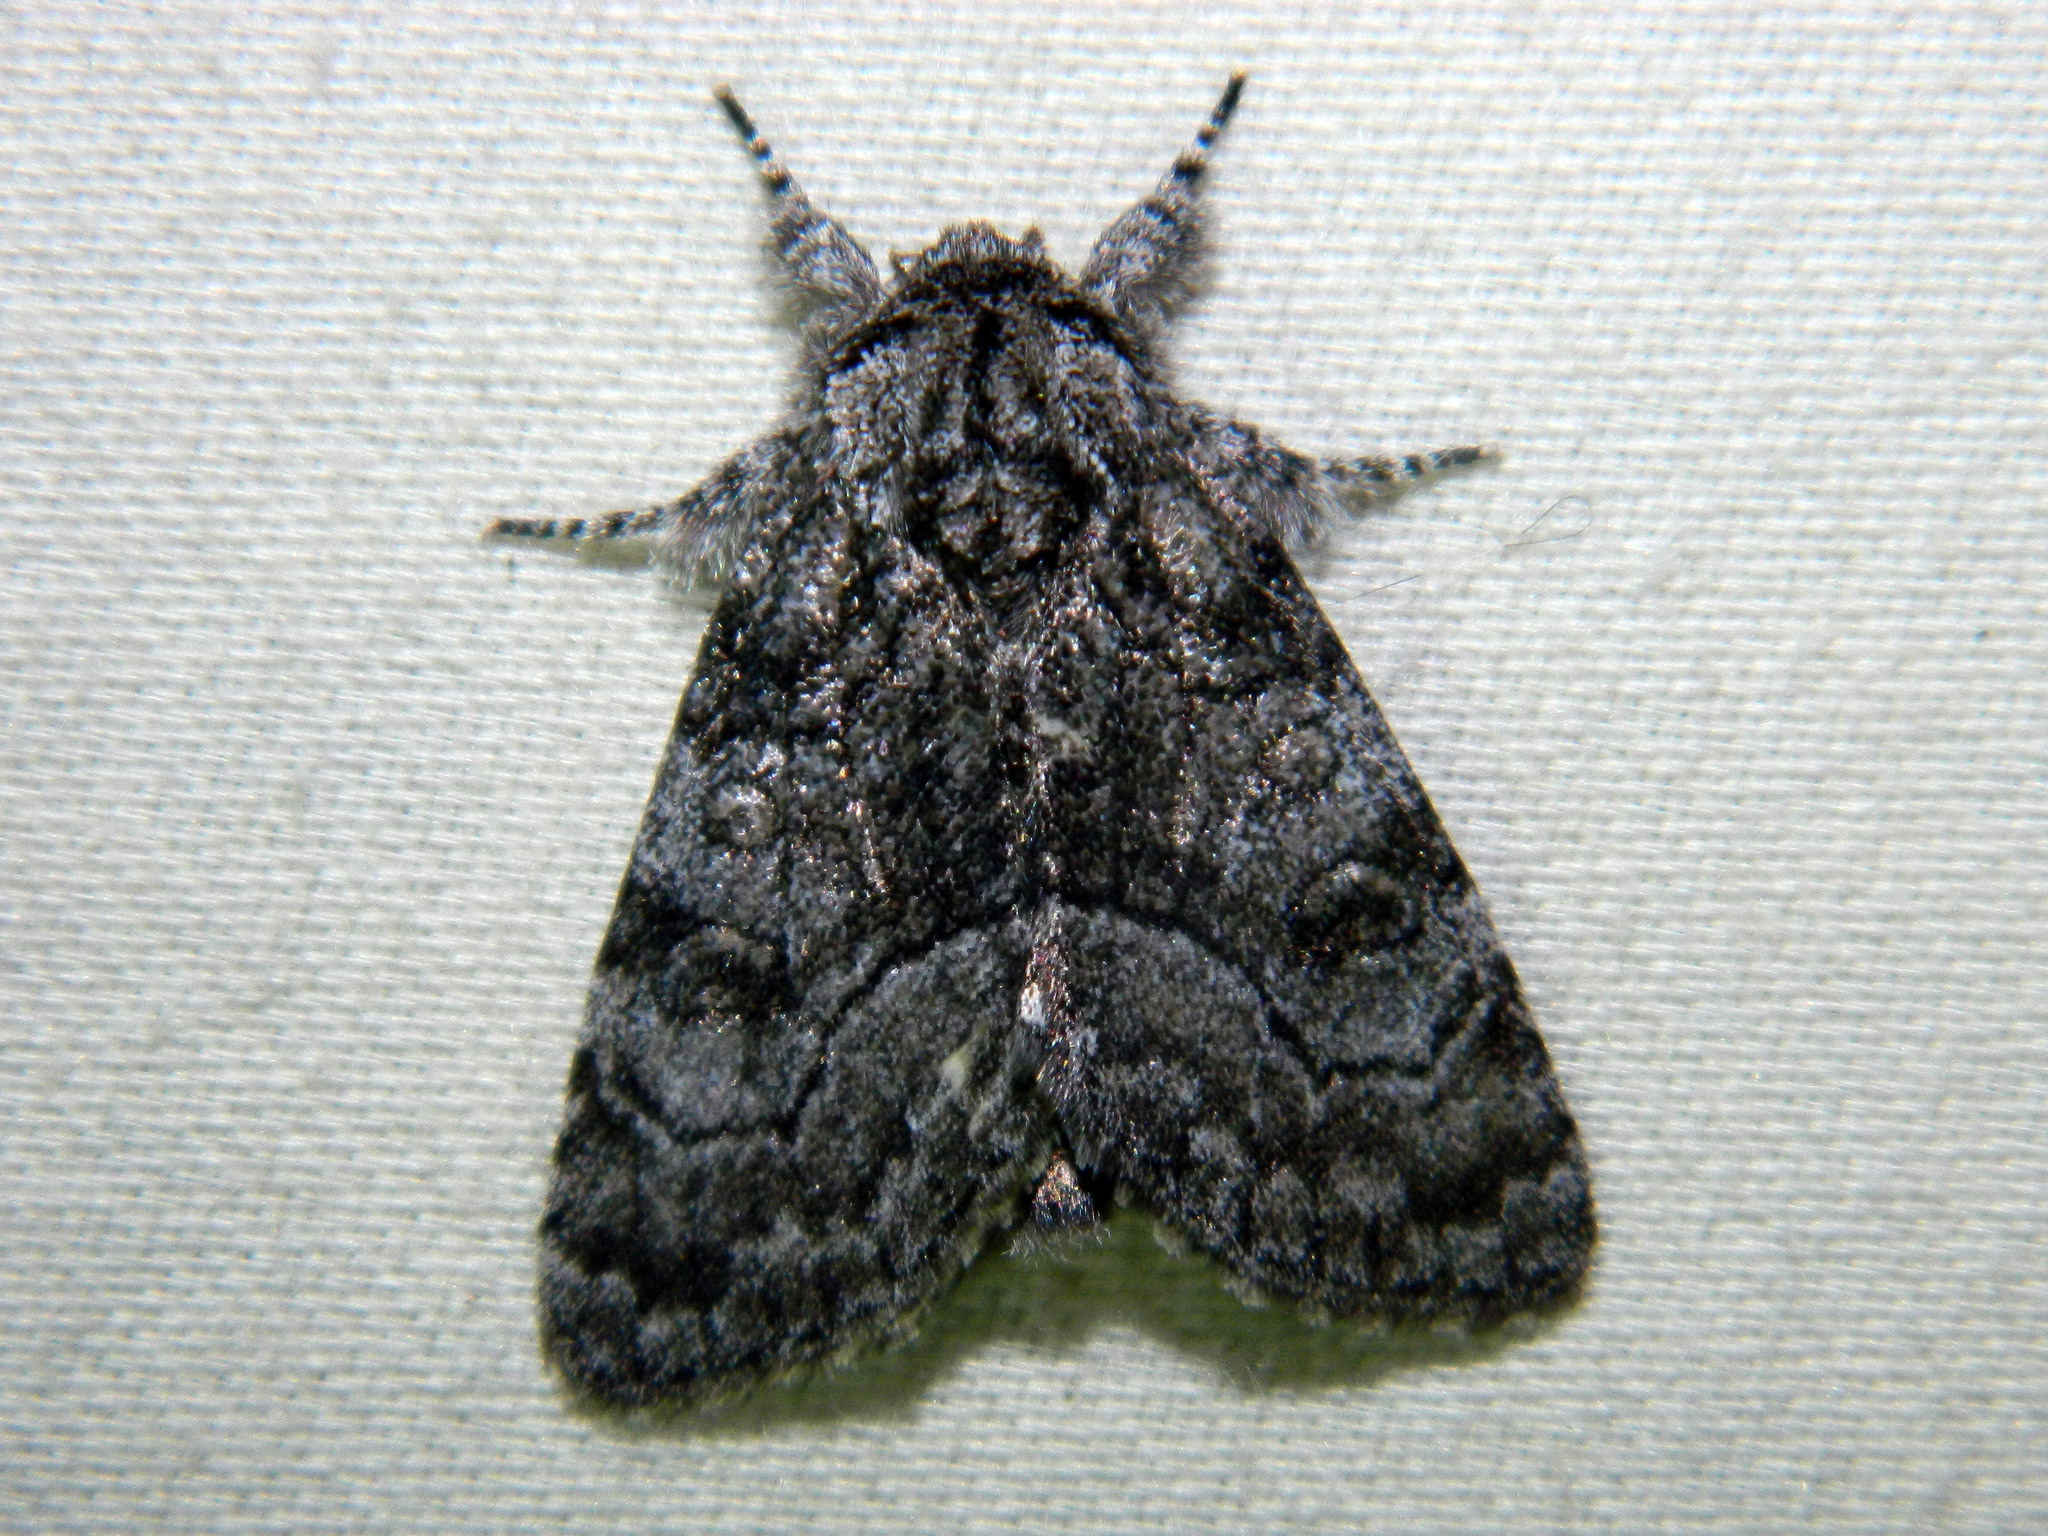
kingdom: Animalia
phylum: Arthropoda
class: Insecta
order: Lepidoptera
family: Noctuidae
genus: Raphia
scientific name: Raphia frater
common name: Brother
